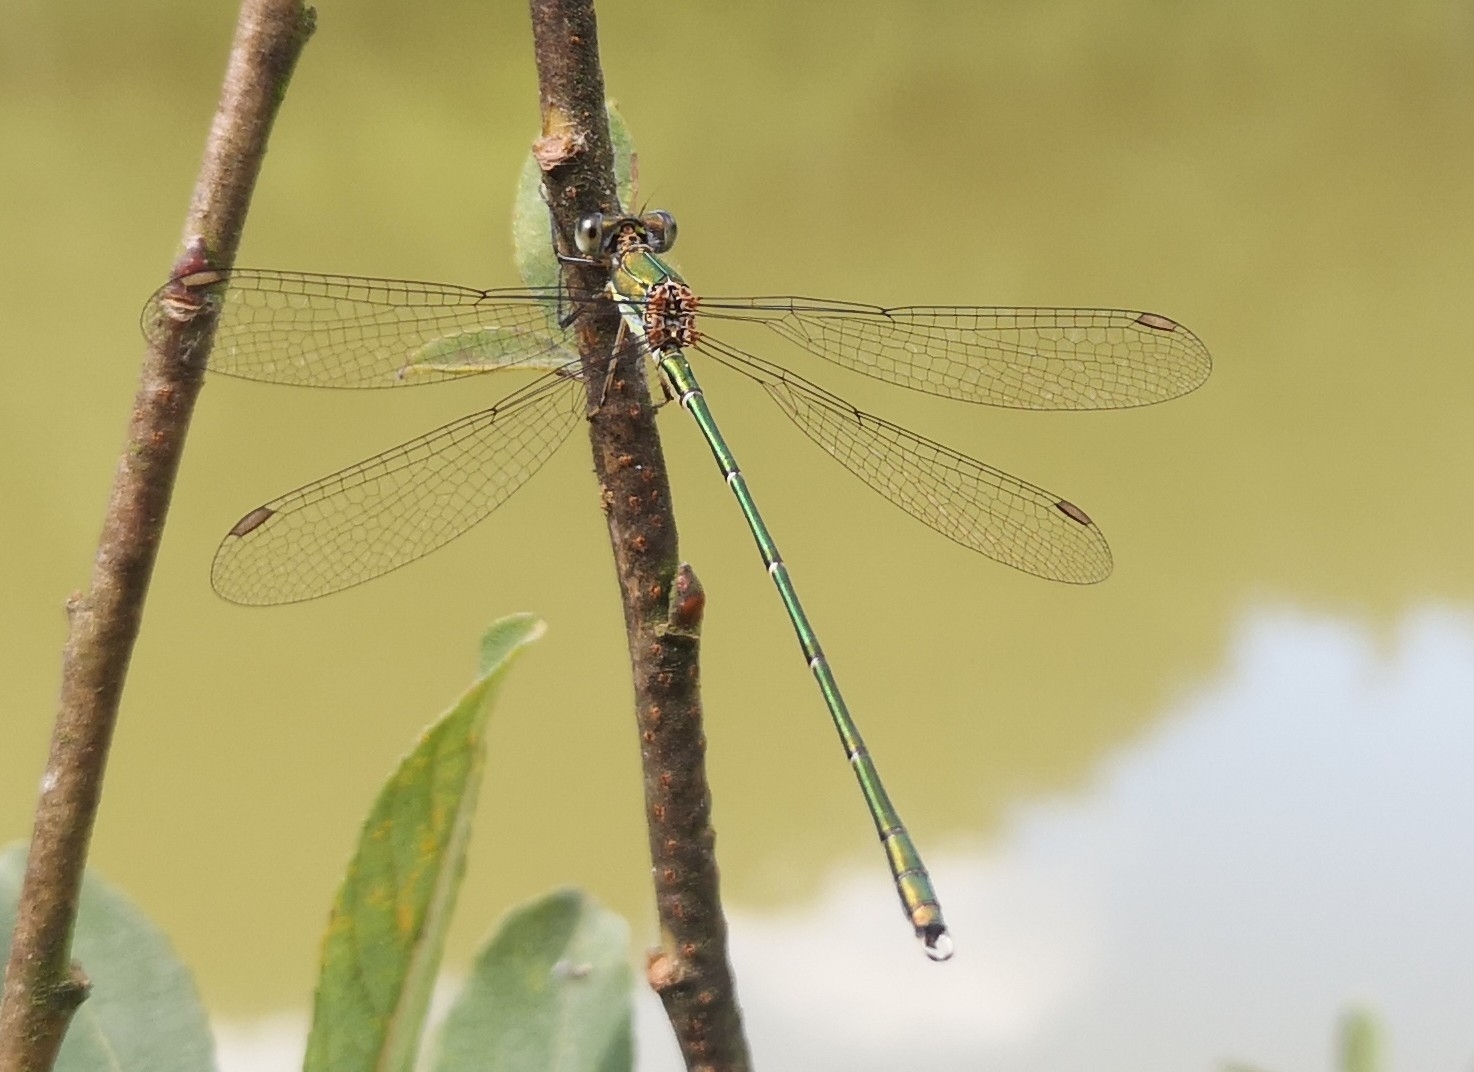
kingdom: Animalia
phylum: Arthropoda
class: Insecta
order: Odonata
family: Lestidae
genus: Chalcolestes
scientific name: Chalcolestes viridis
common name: Green emerald damselfly
